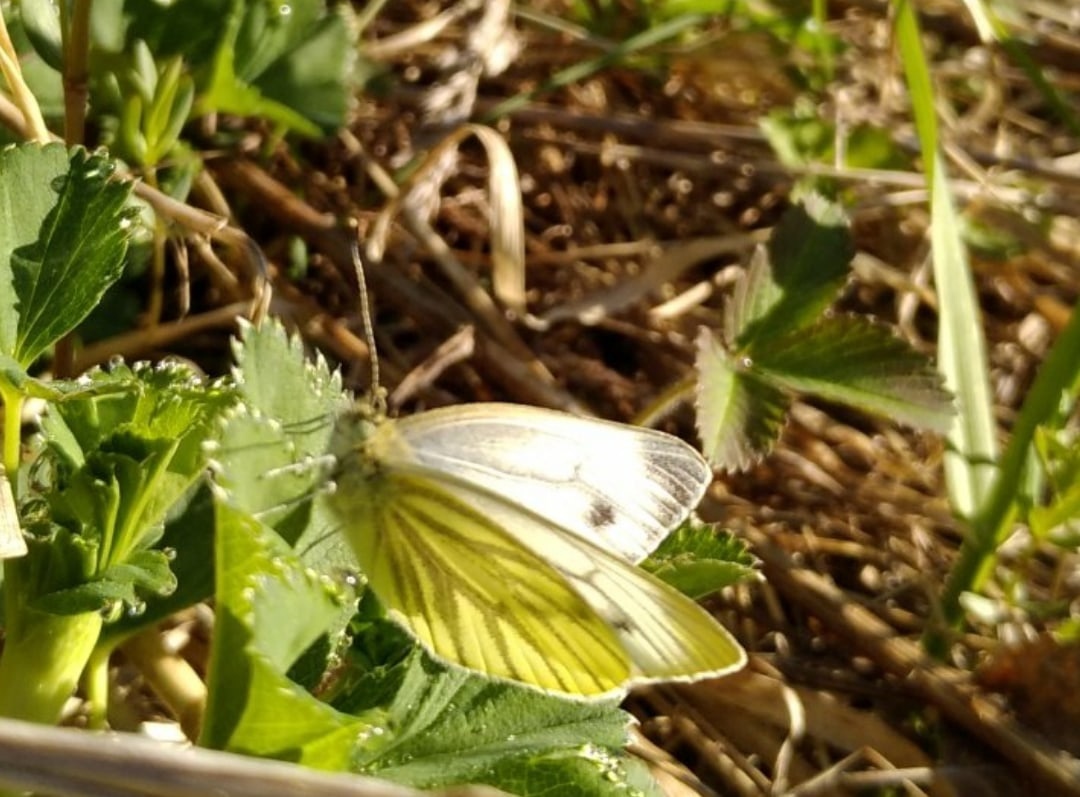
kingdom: Animalia
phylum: Arthropoda
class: Insecta
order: Lepidoptera
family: Pieridae
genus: Pieris
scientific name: Pieris napi
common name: Green-veined white
